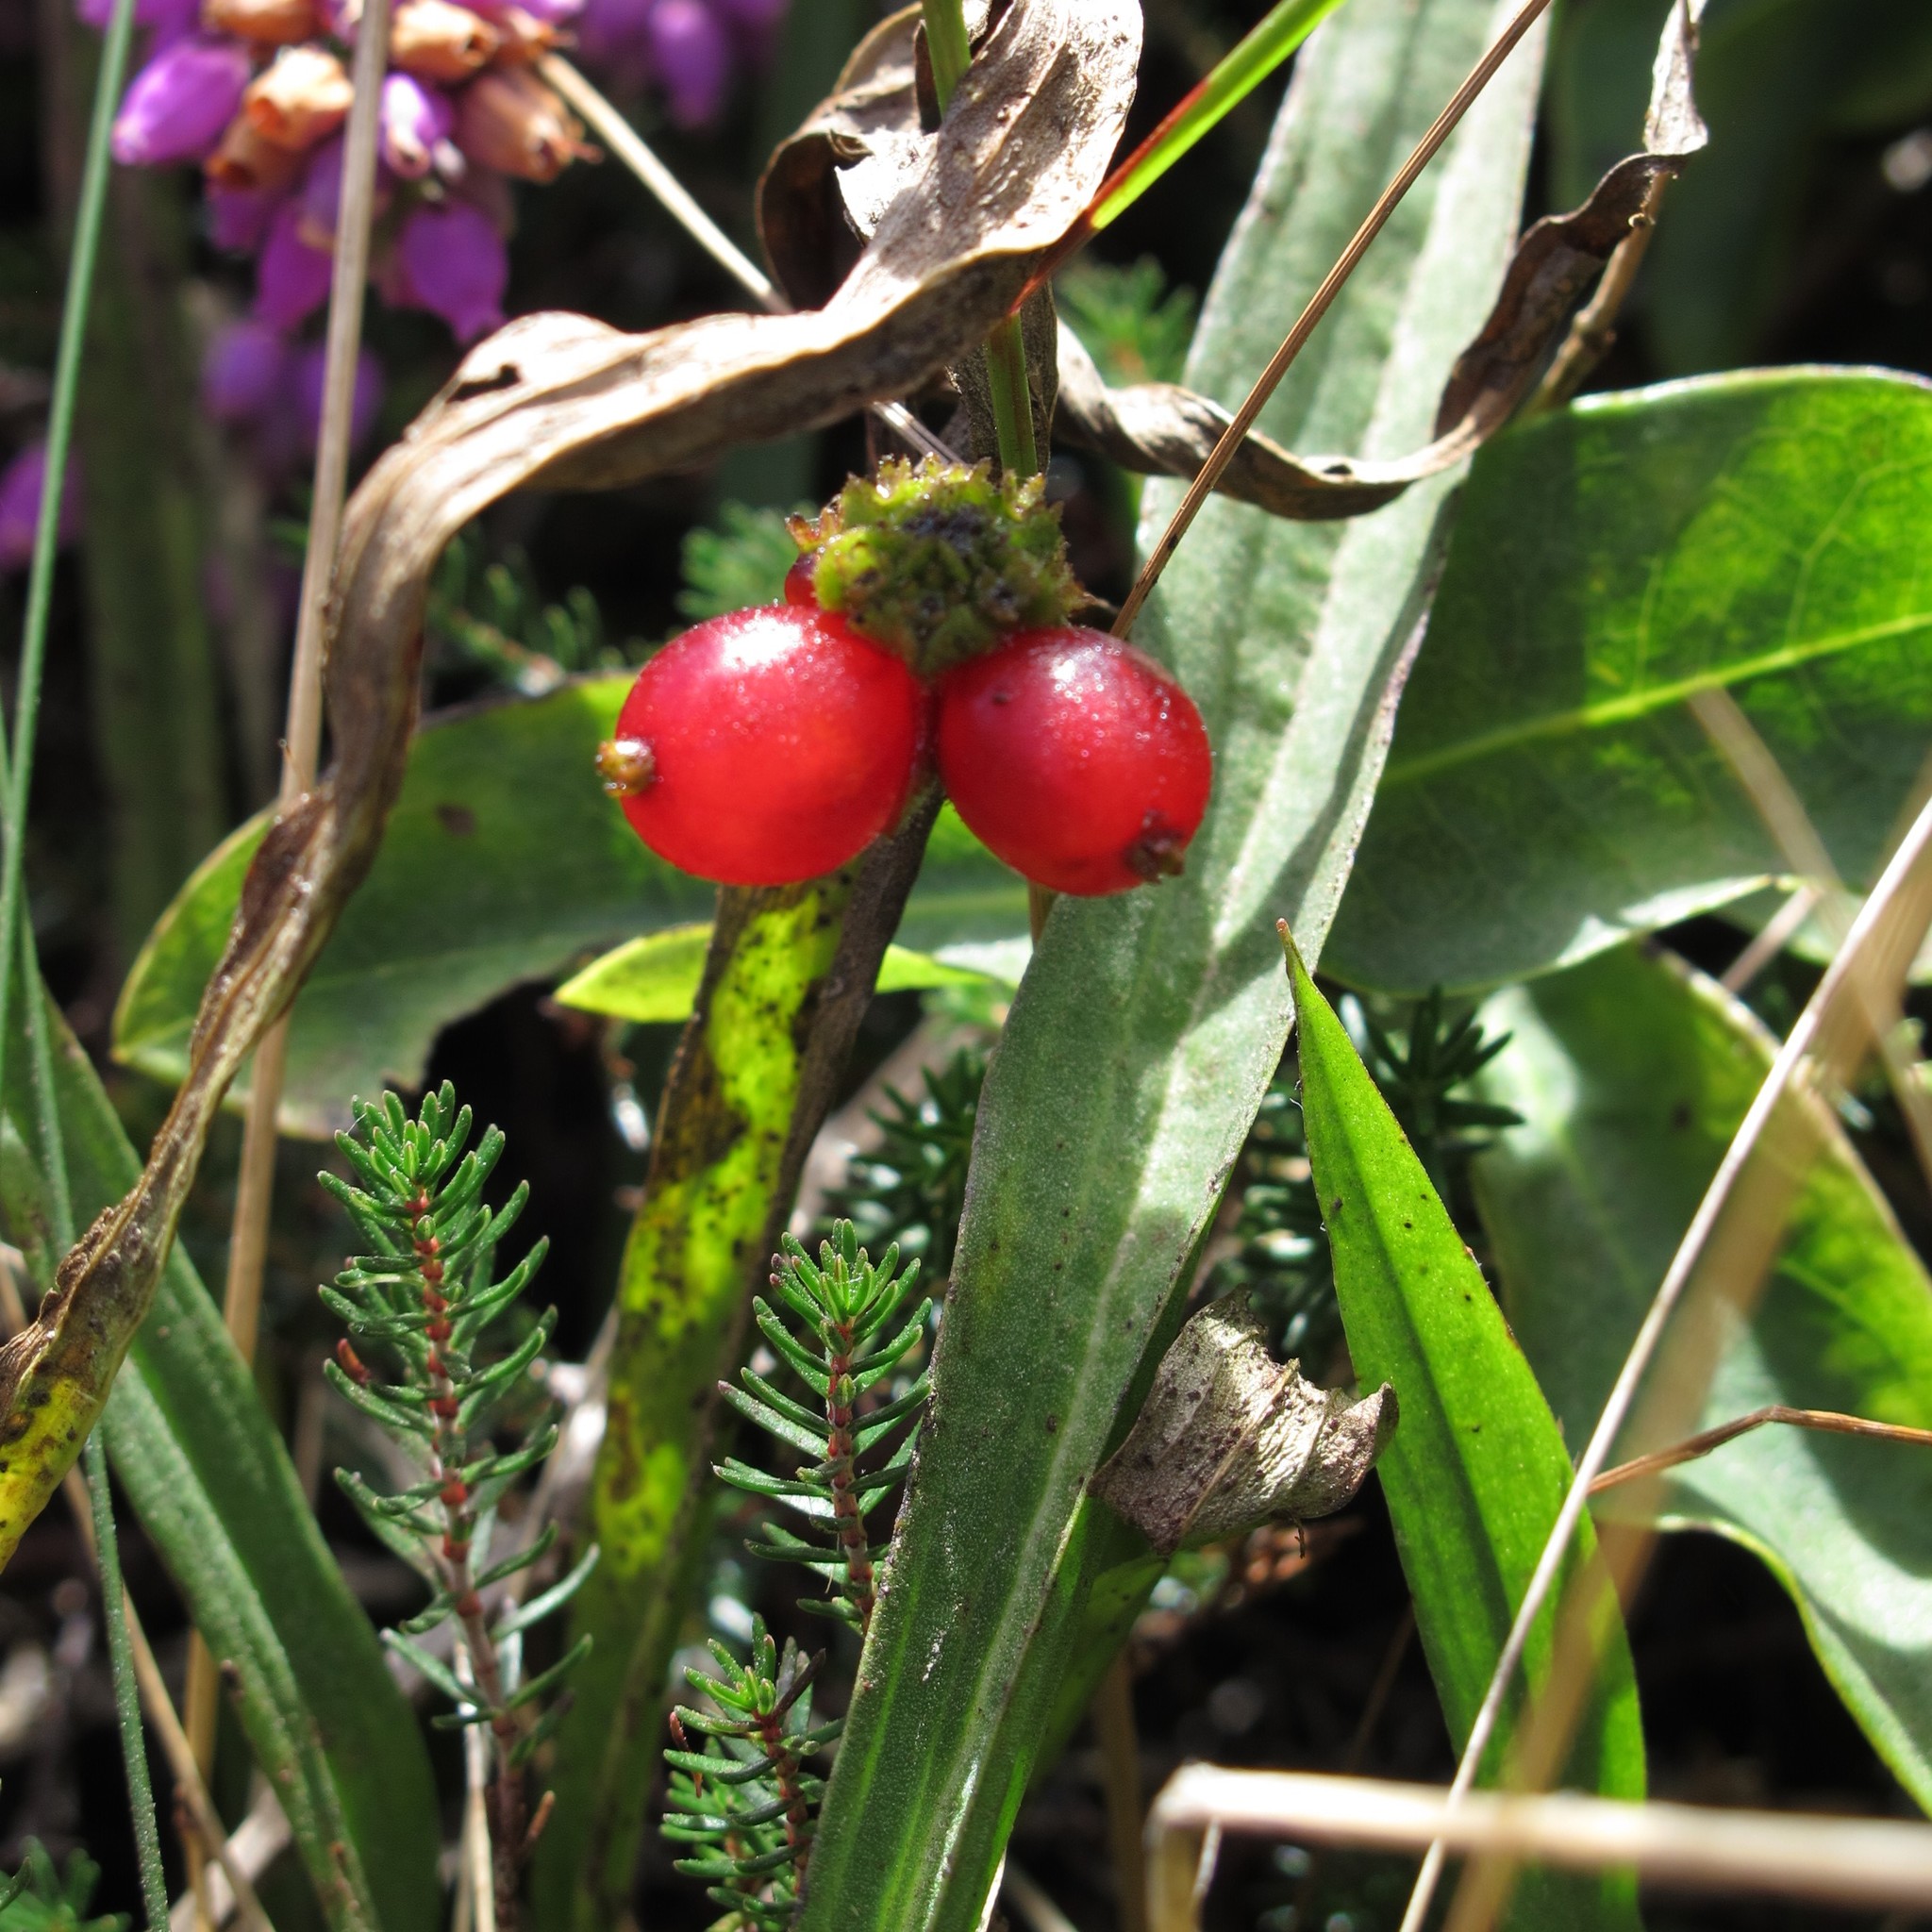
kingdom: Plantae
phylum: Tracheophyta
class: Magnoliopsida
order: Dipsacales
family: Caprifoliaceae
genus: Lonicera
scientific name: Lonicera periclymenum
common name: European honeysuckle
